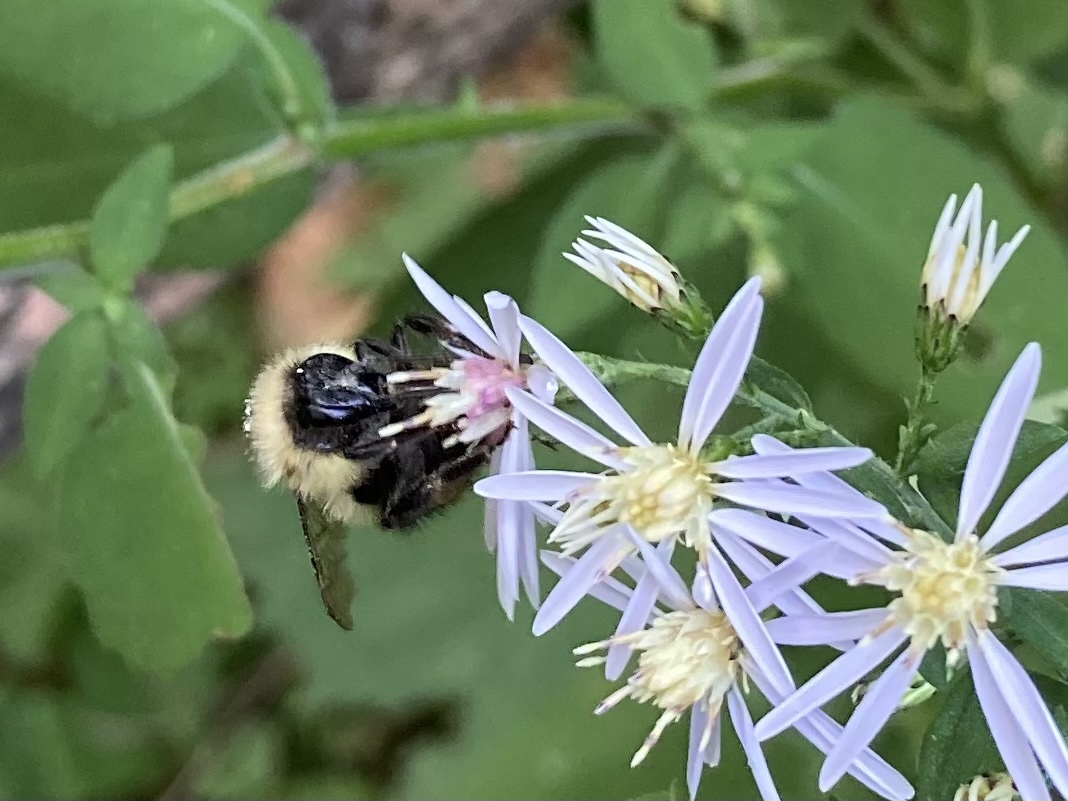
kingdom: Animalia
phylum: Arthropoda
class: Insecta
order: Hymenoptera
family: Apidae
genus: Pyrobombus
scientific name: Pyrobombus
